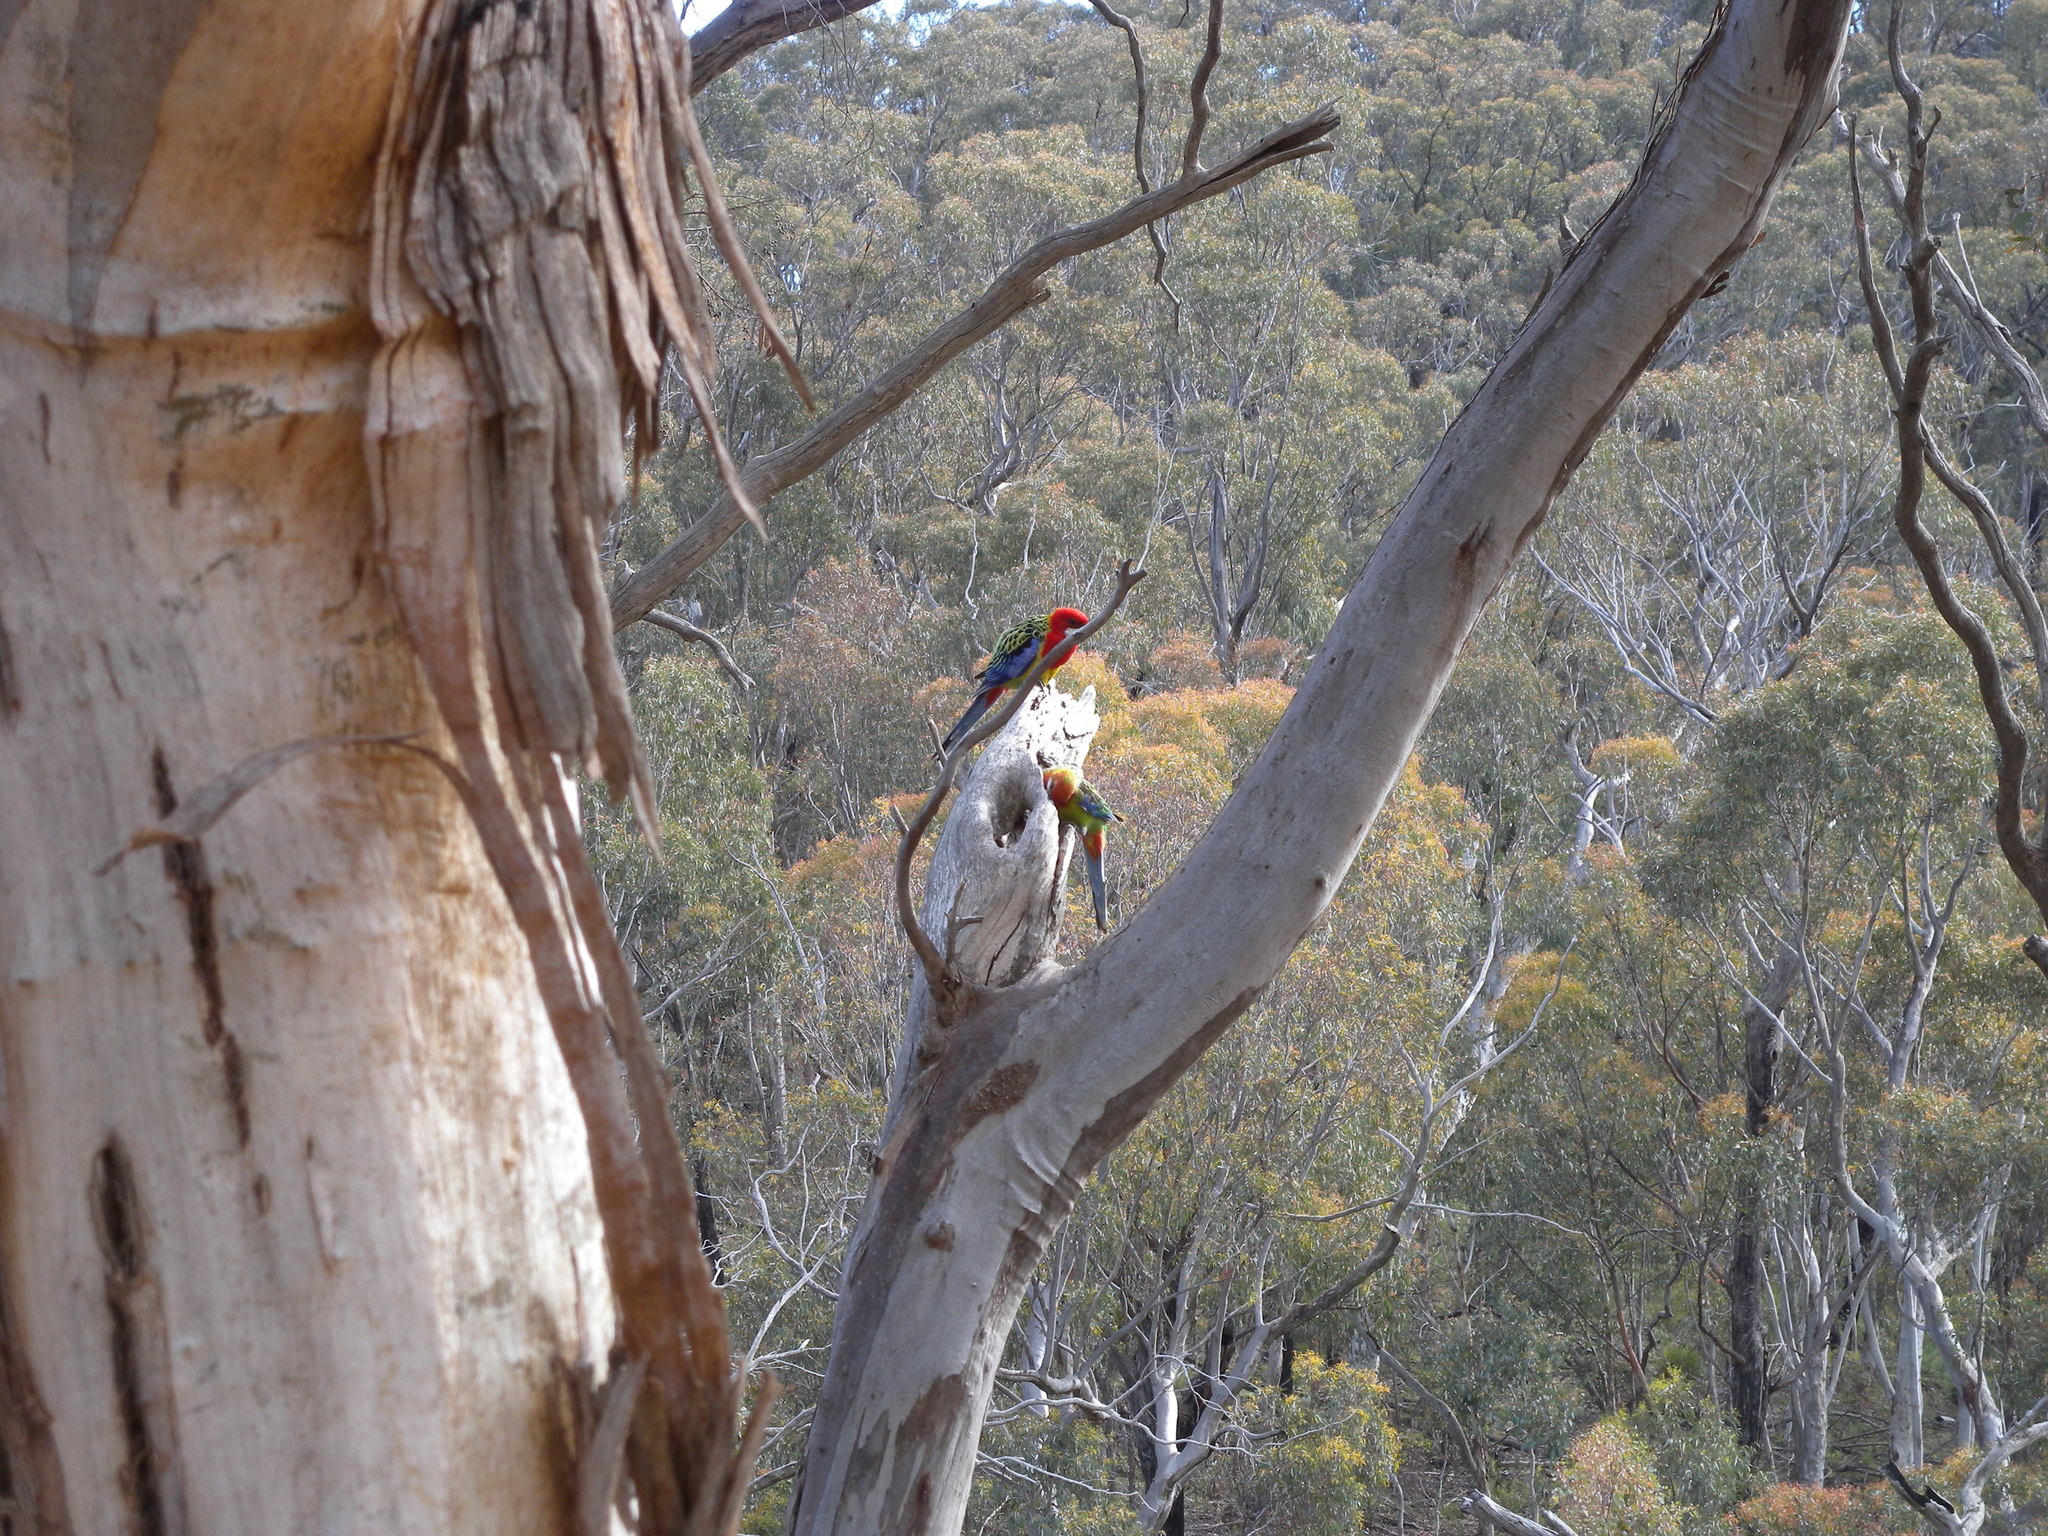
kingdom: Animalia
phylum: Chordata
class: Aves
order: Psittaciformes
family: Psittacidae
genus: Platycercus
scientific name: Platycercus eximius
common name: Eastern rosella
